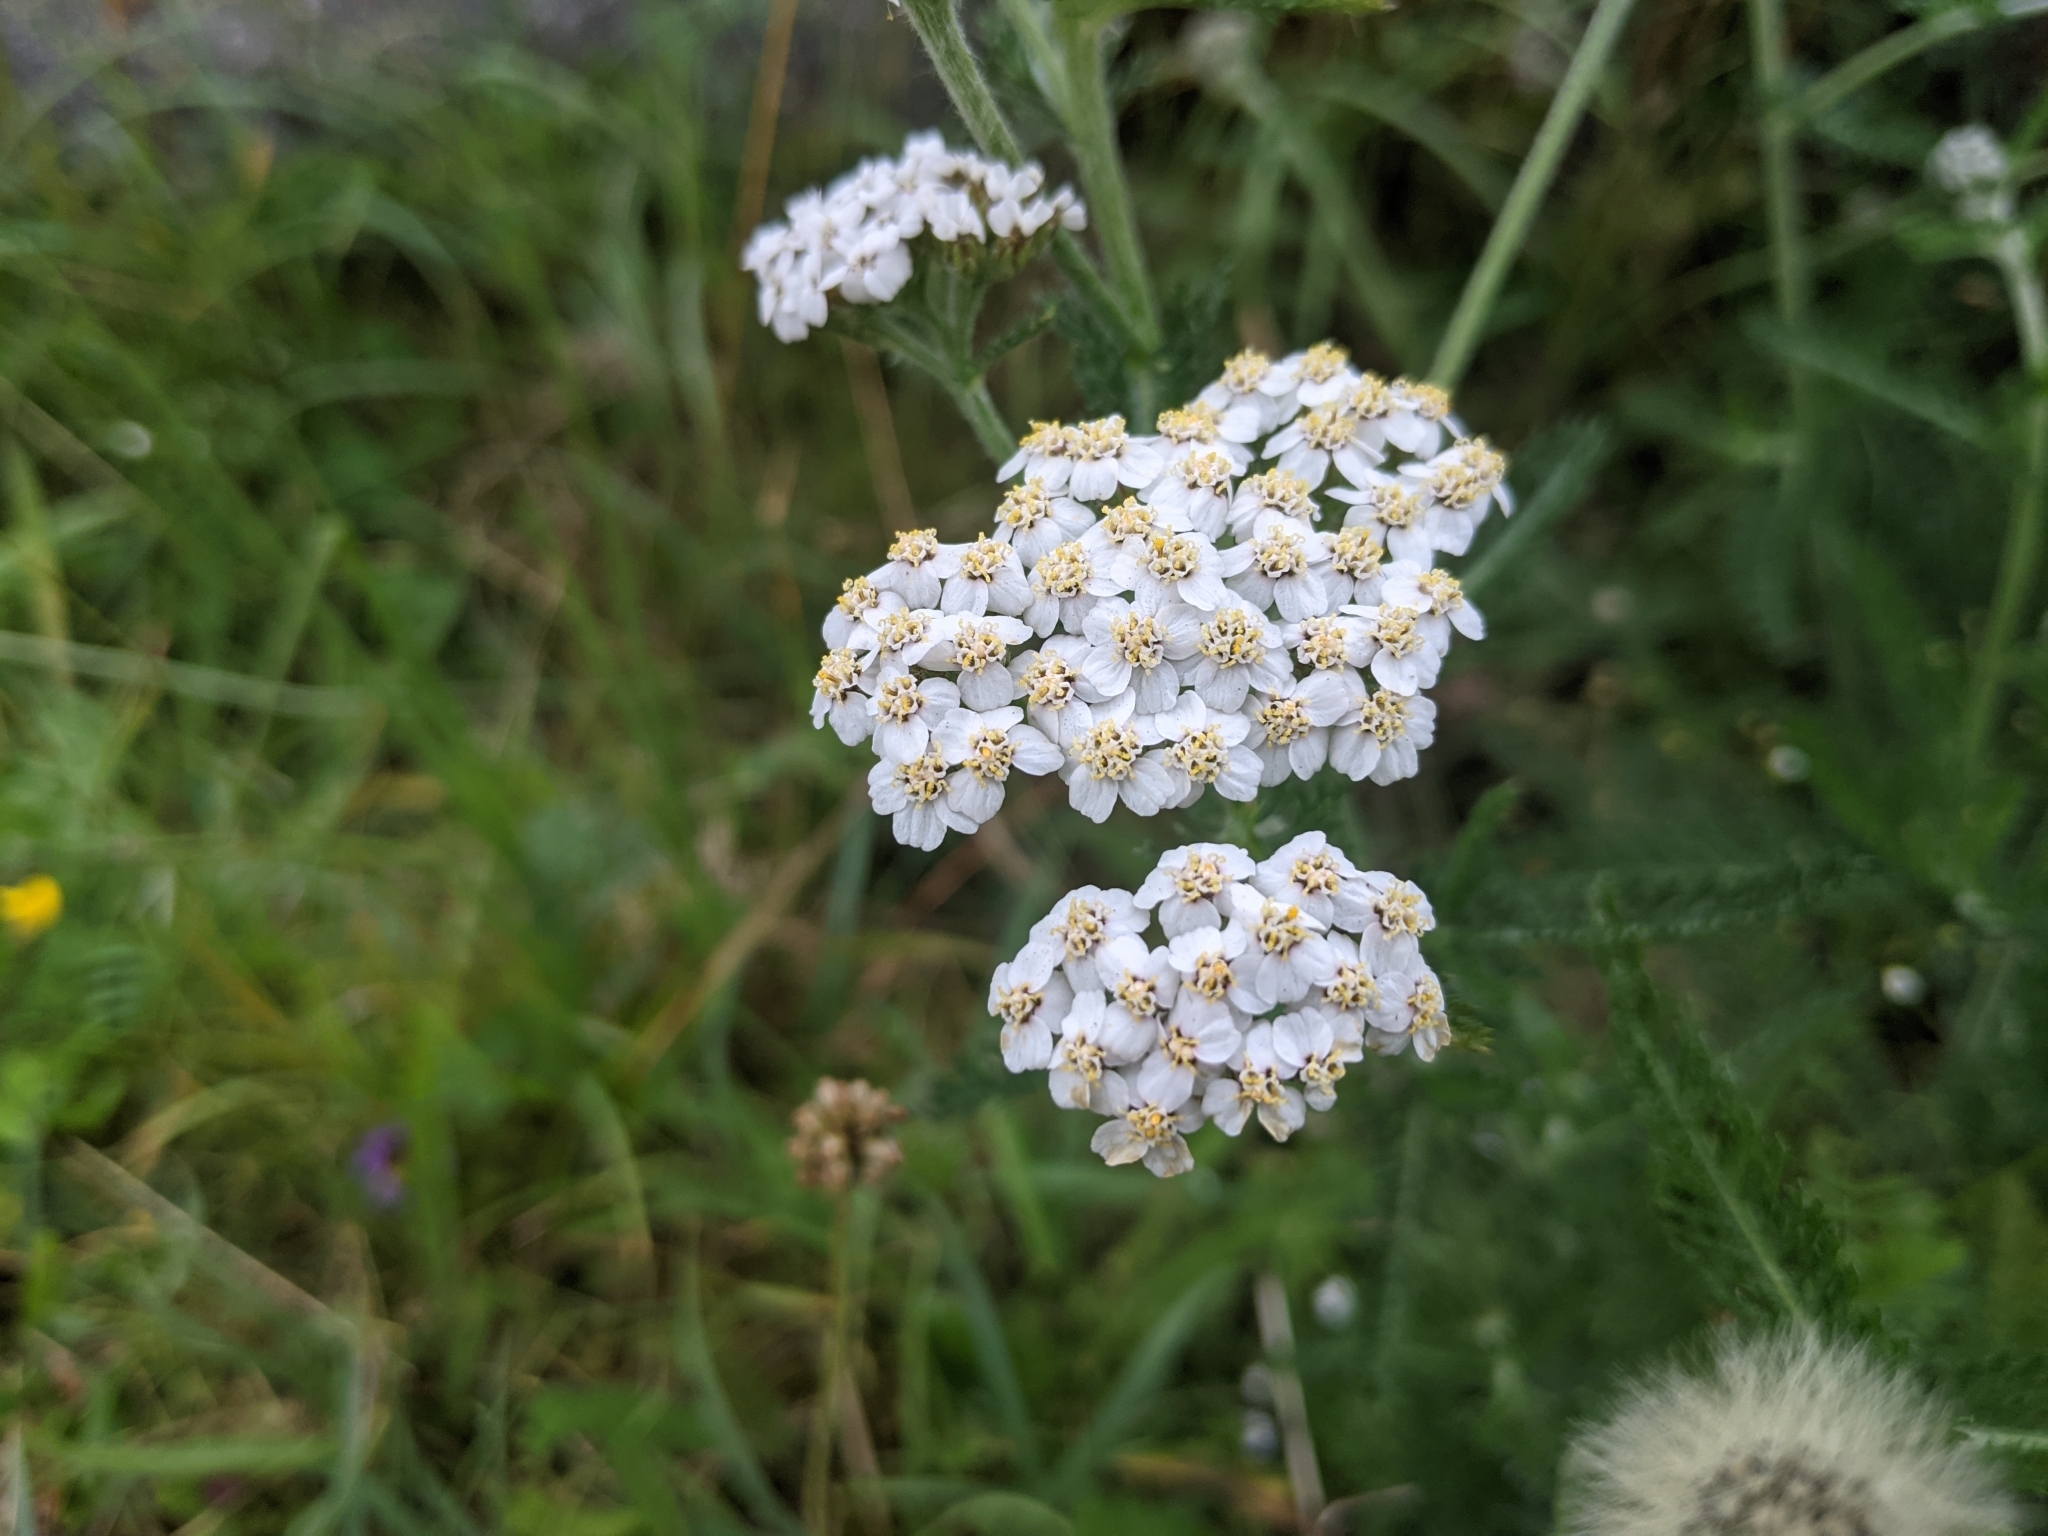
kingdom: Plantae
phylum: Tracheophyta
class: Magnoliopsida
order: Asterales
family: Asteraceae
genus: Achillea
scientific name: Achillea millefolium
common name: Yarrow
